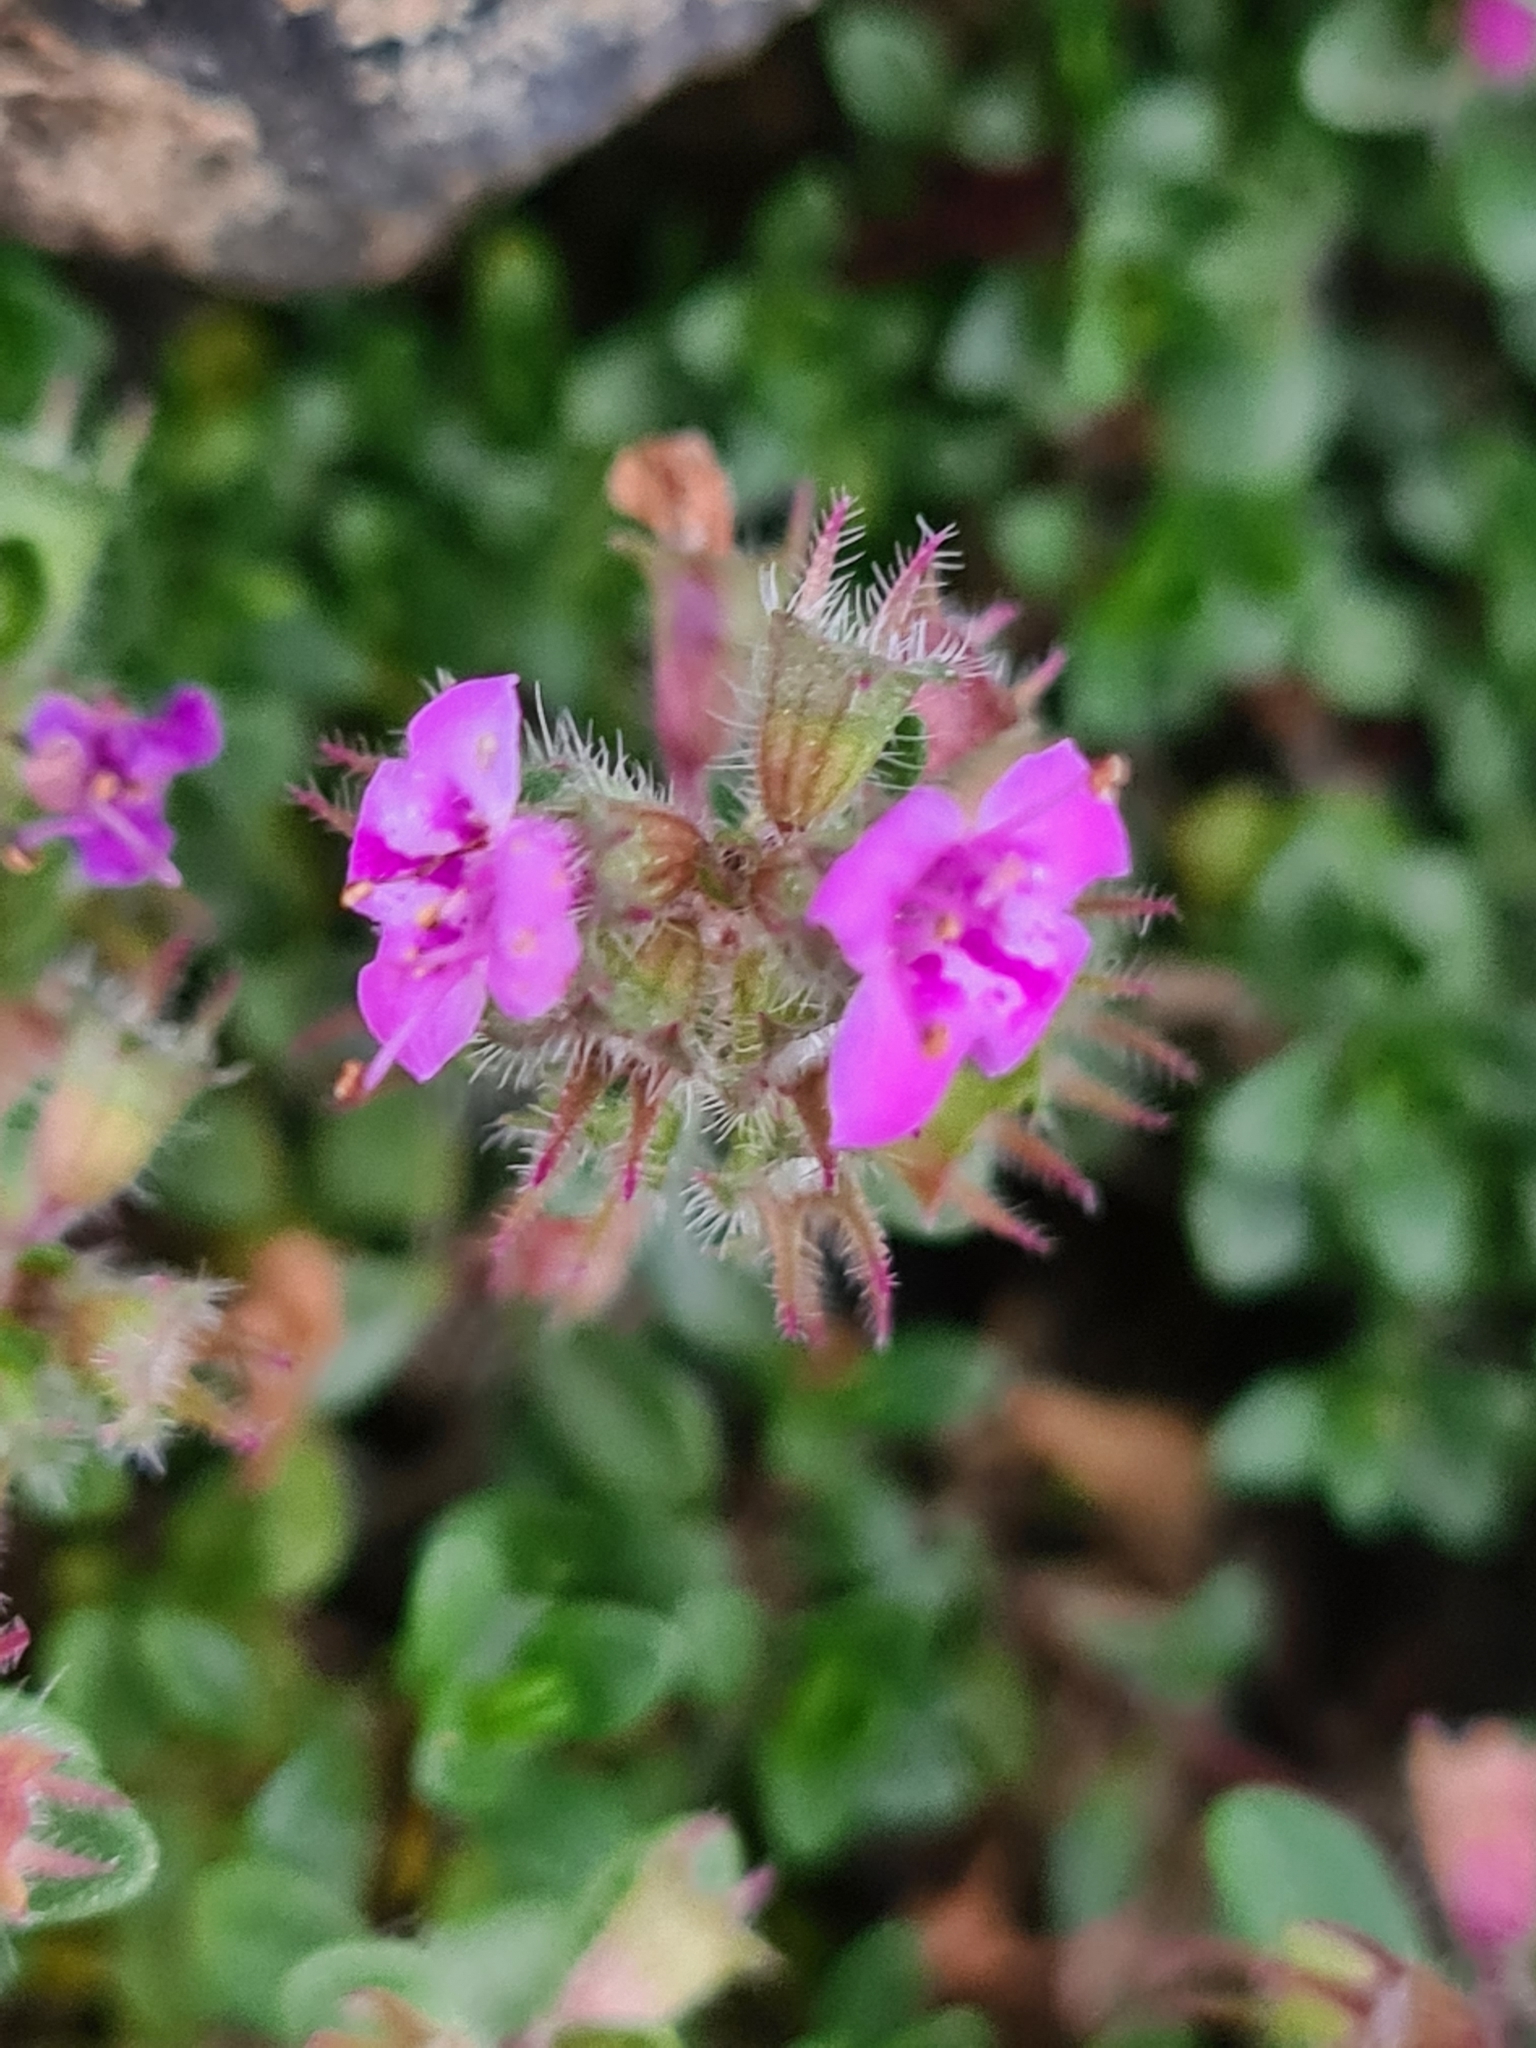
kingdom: Plantae
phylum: Tracheophyta
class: Magnoliopsida
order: Lamiales
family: Lamiaceae
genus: Thymus
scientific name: Thymus praecox
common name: Wild thyme
